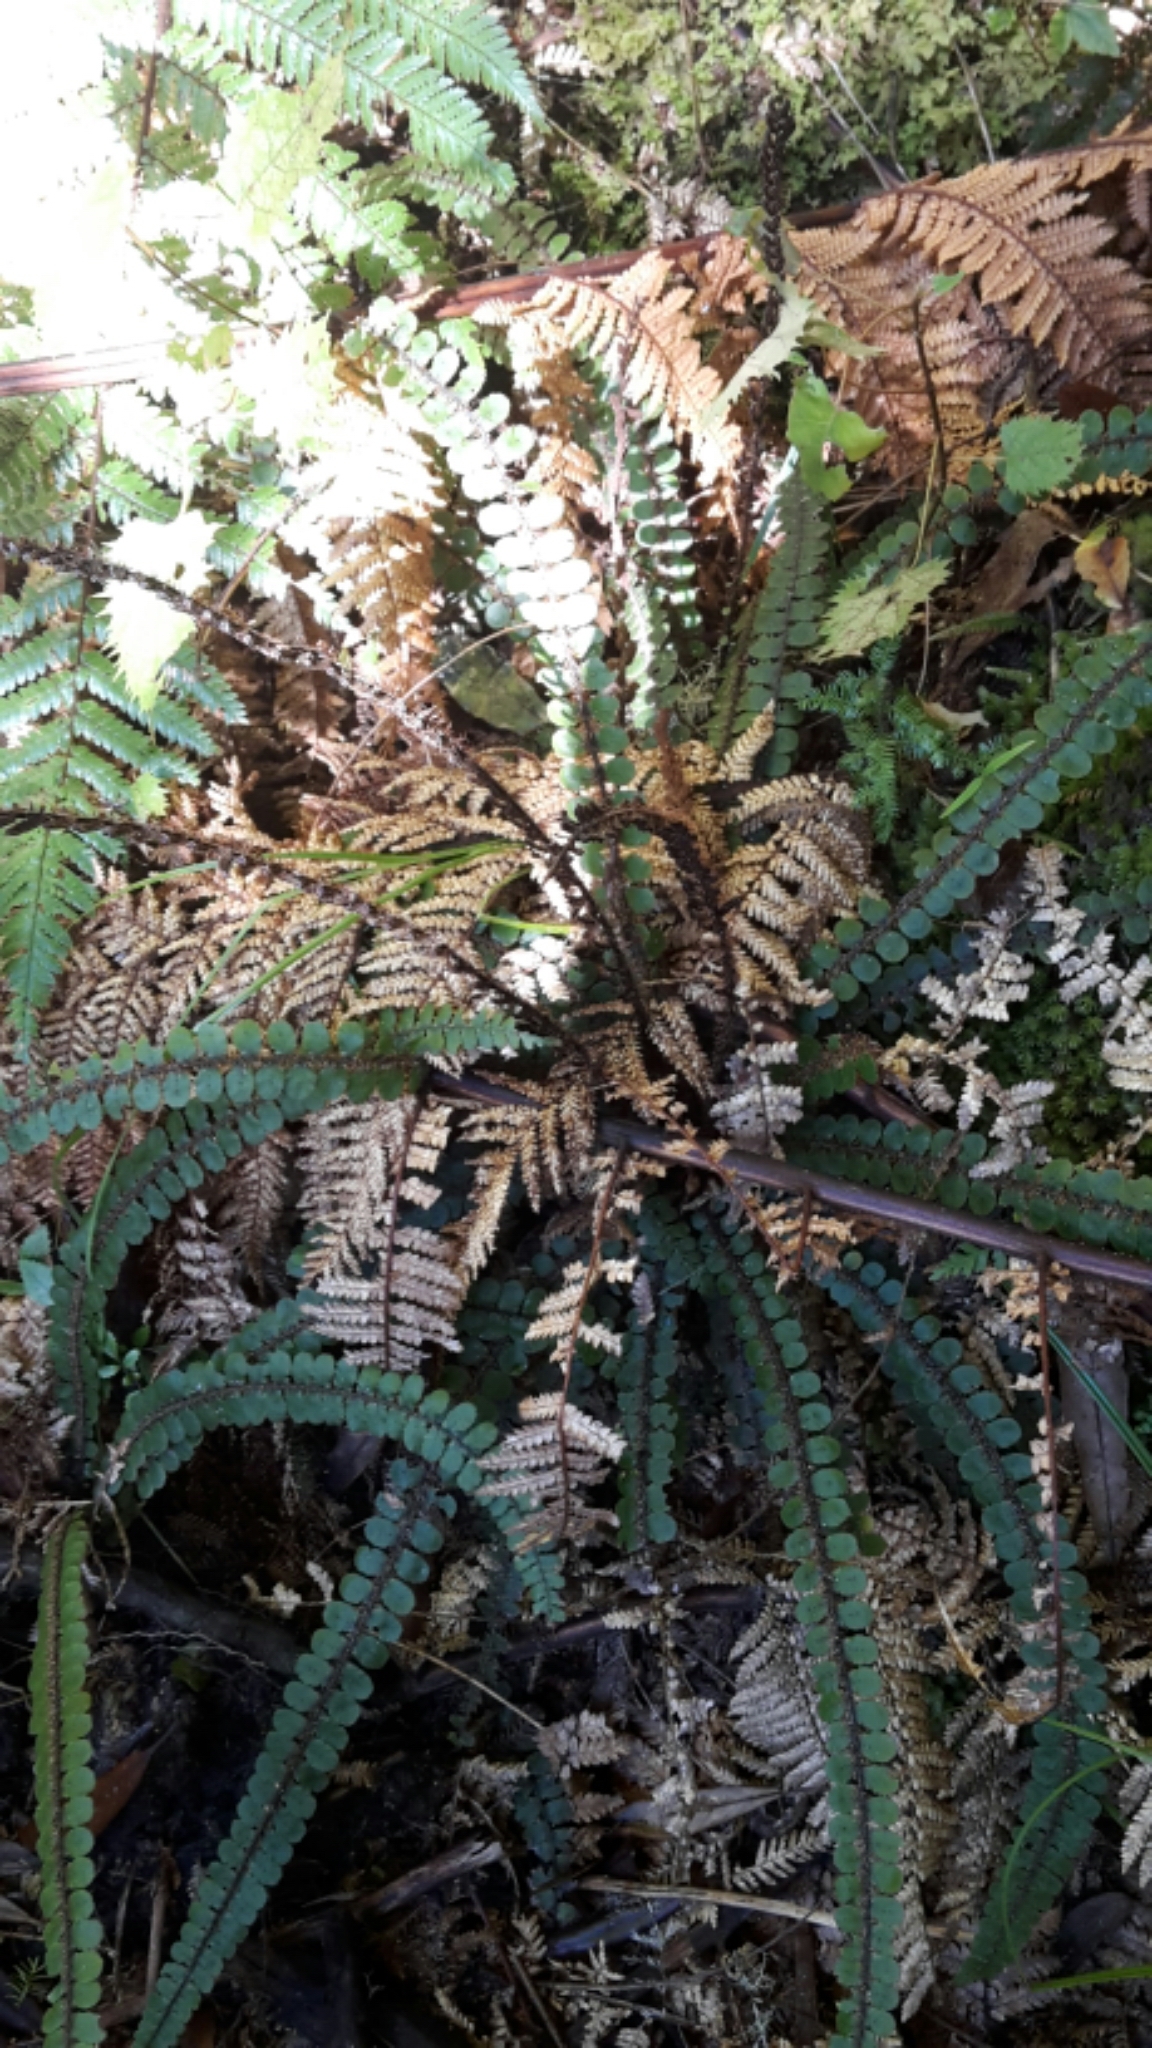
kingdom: Plantae
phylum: Tracheophyta
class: Polypodiopsida
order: Polypodiales
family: Blechnaceae
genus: Cranfillia
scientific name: Cranfillia fluviatilis
